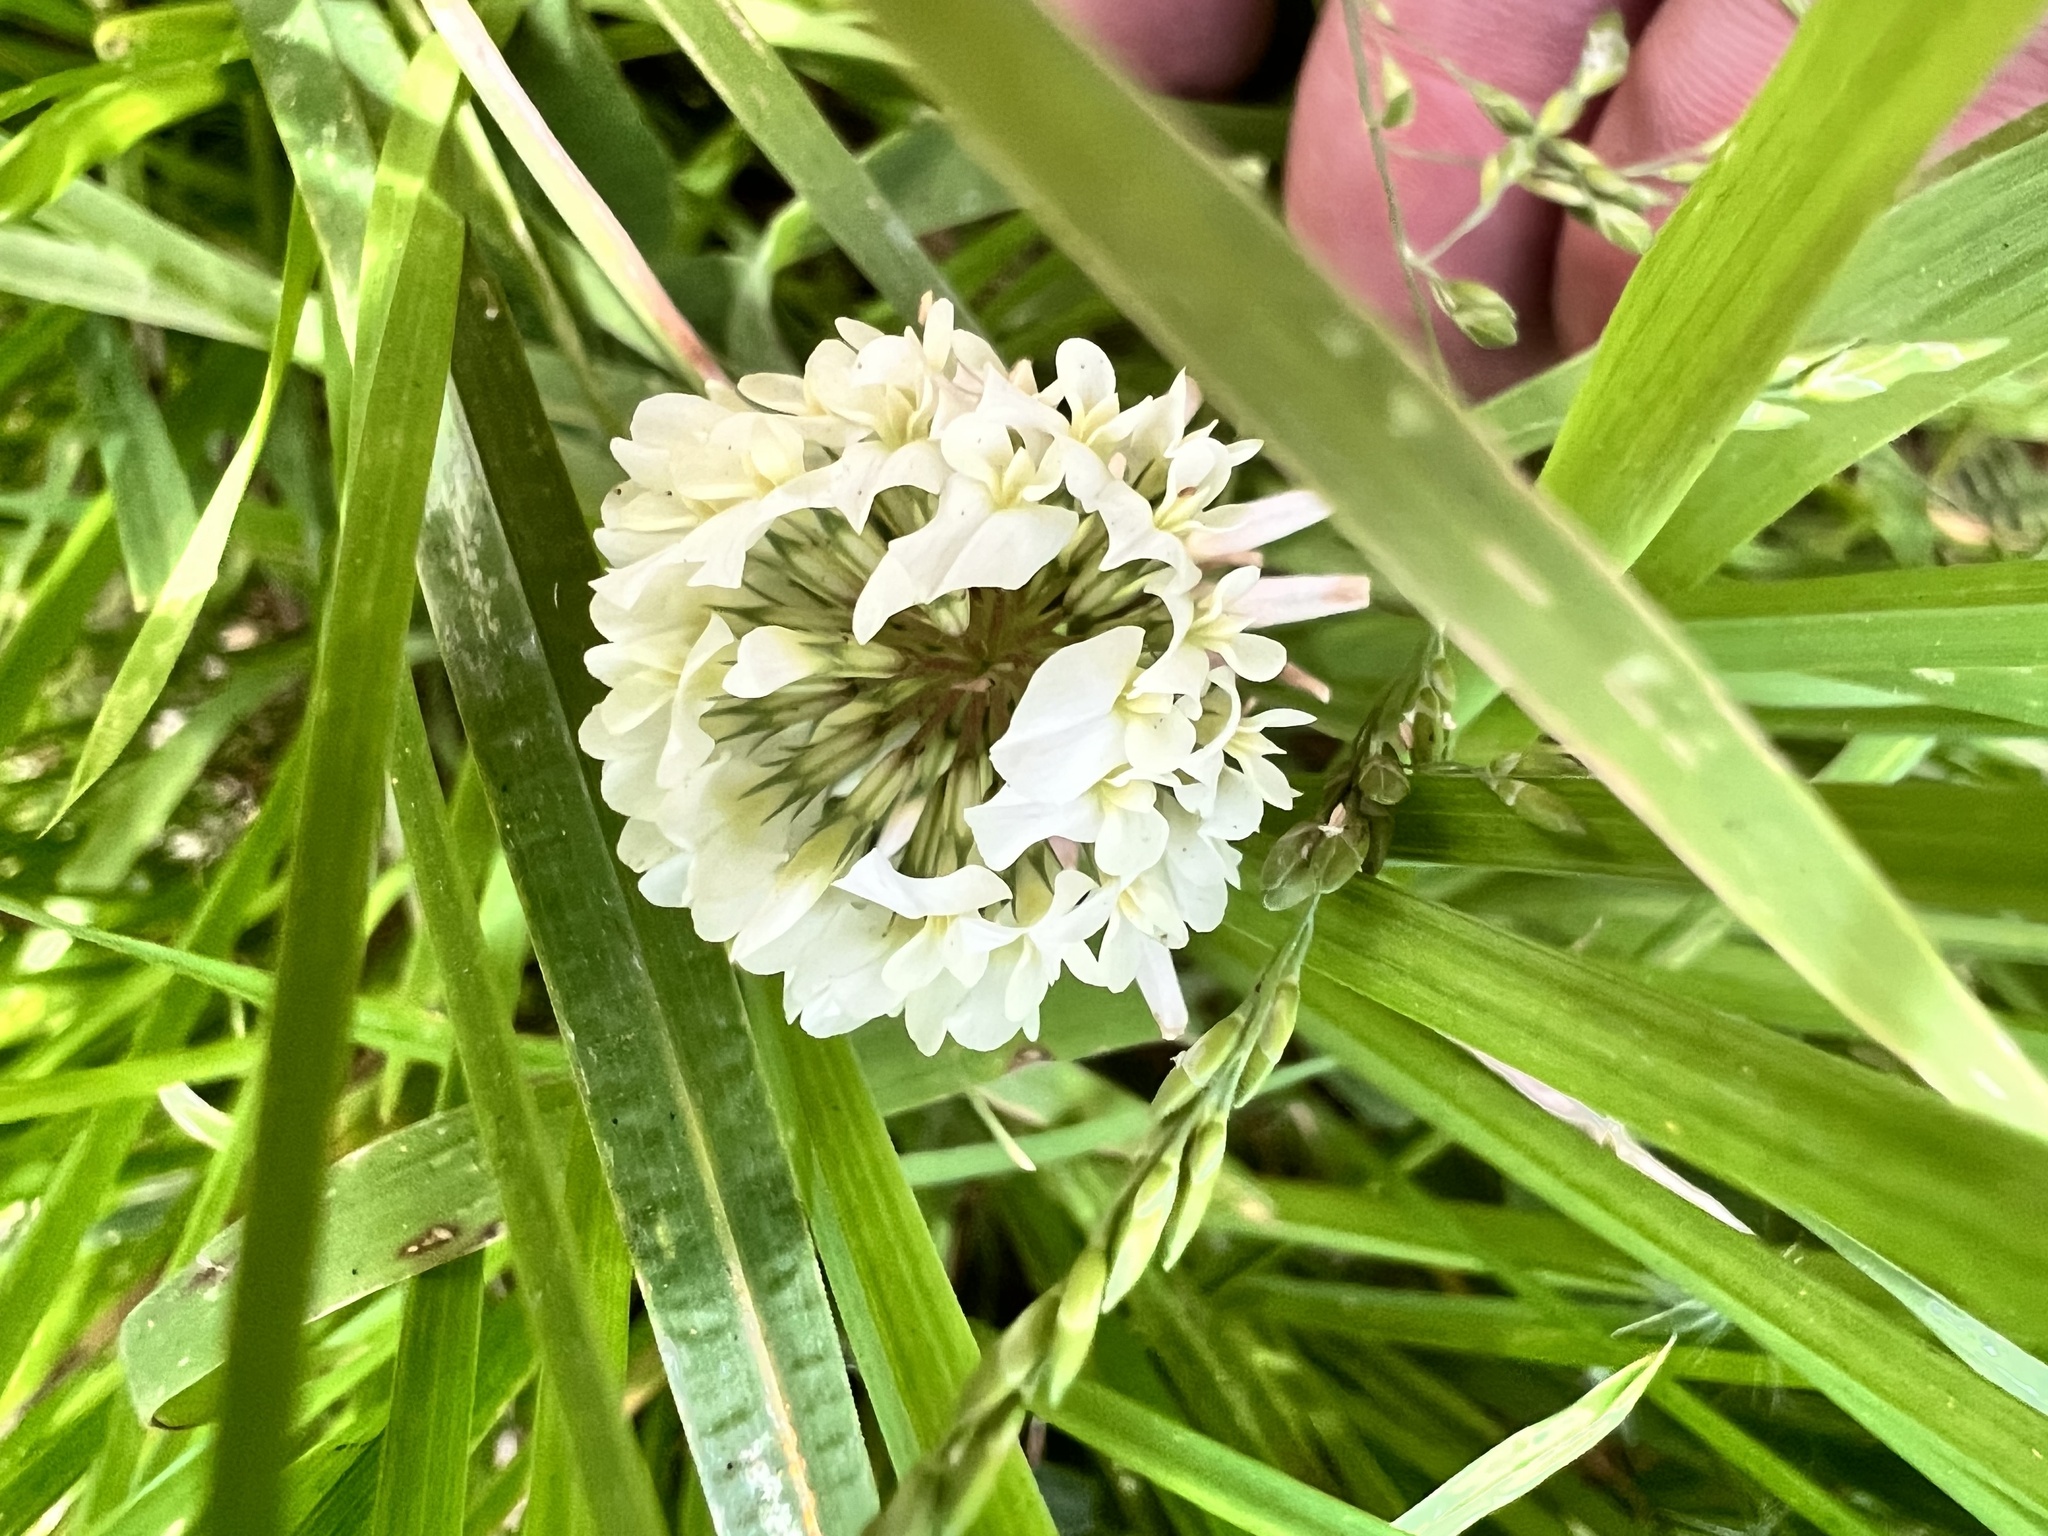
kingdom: Plantae
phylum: Tracheophyta
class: Magnoliopsida
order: Fabales
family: Fabaceae
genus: Trifolium
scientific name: Trifolium repens
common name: White clover
